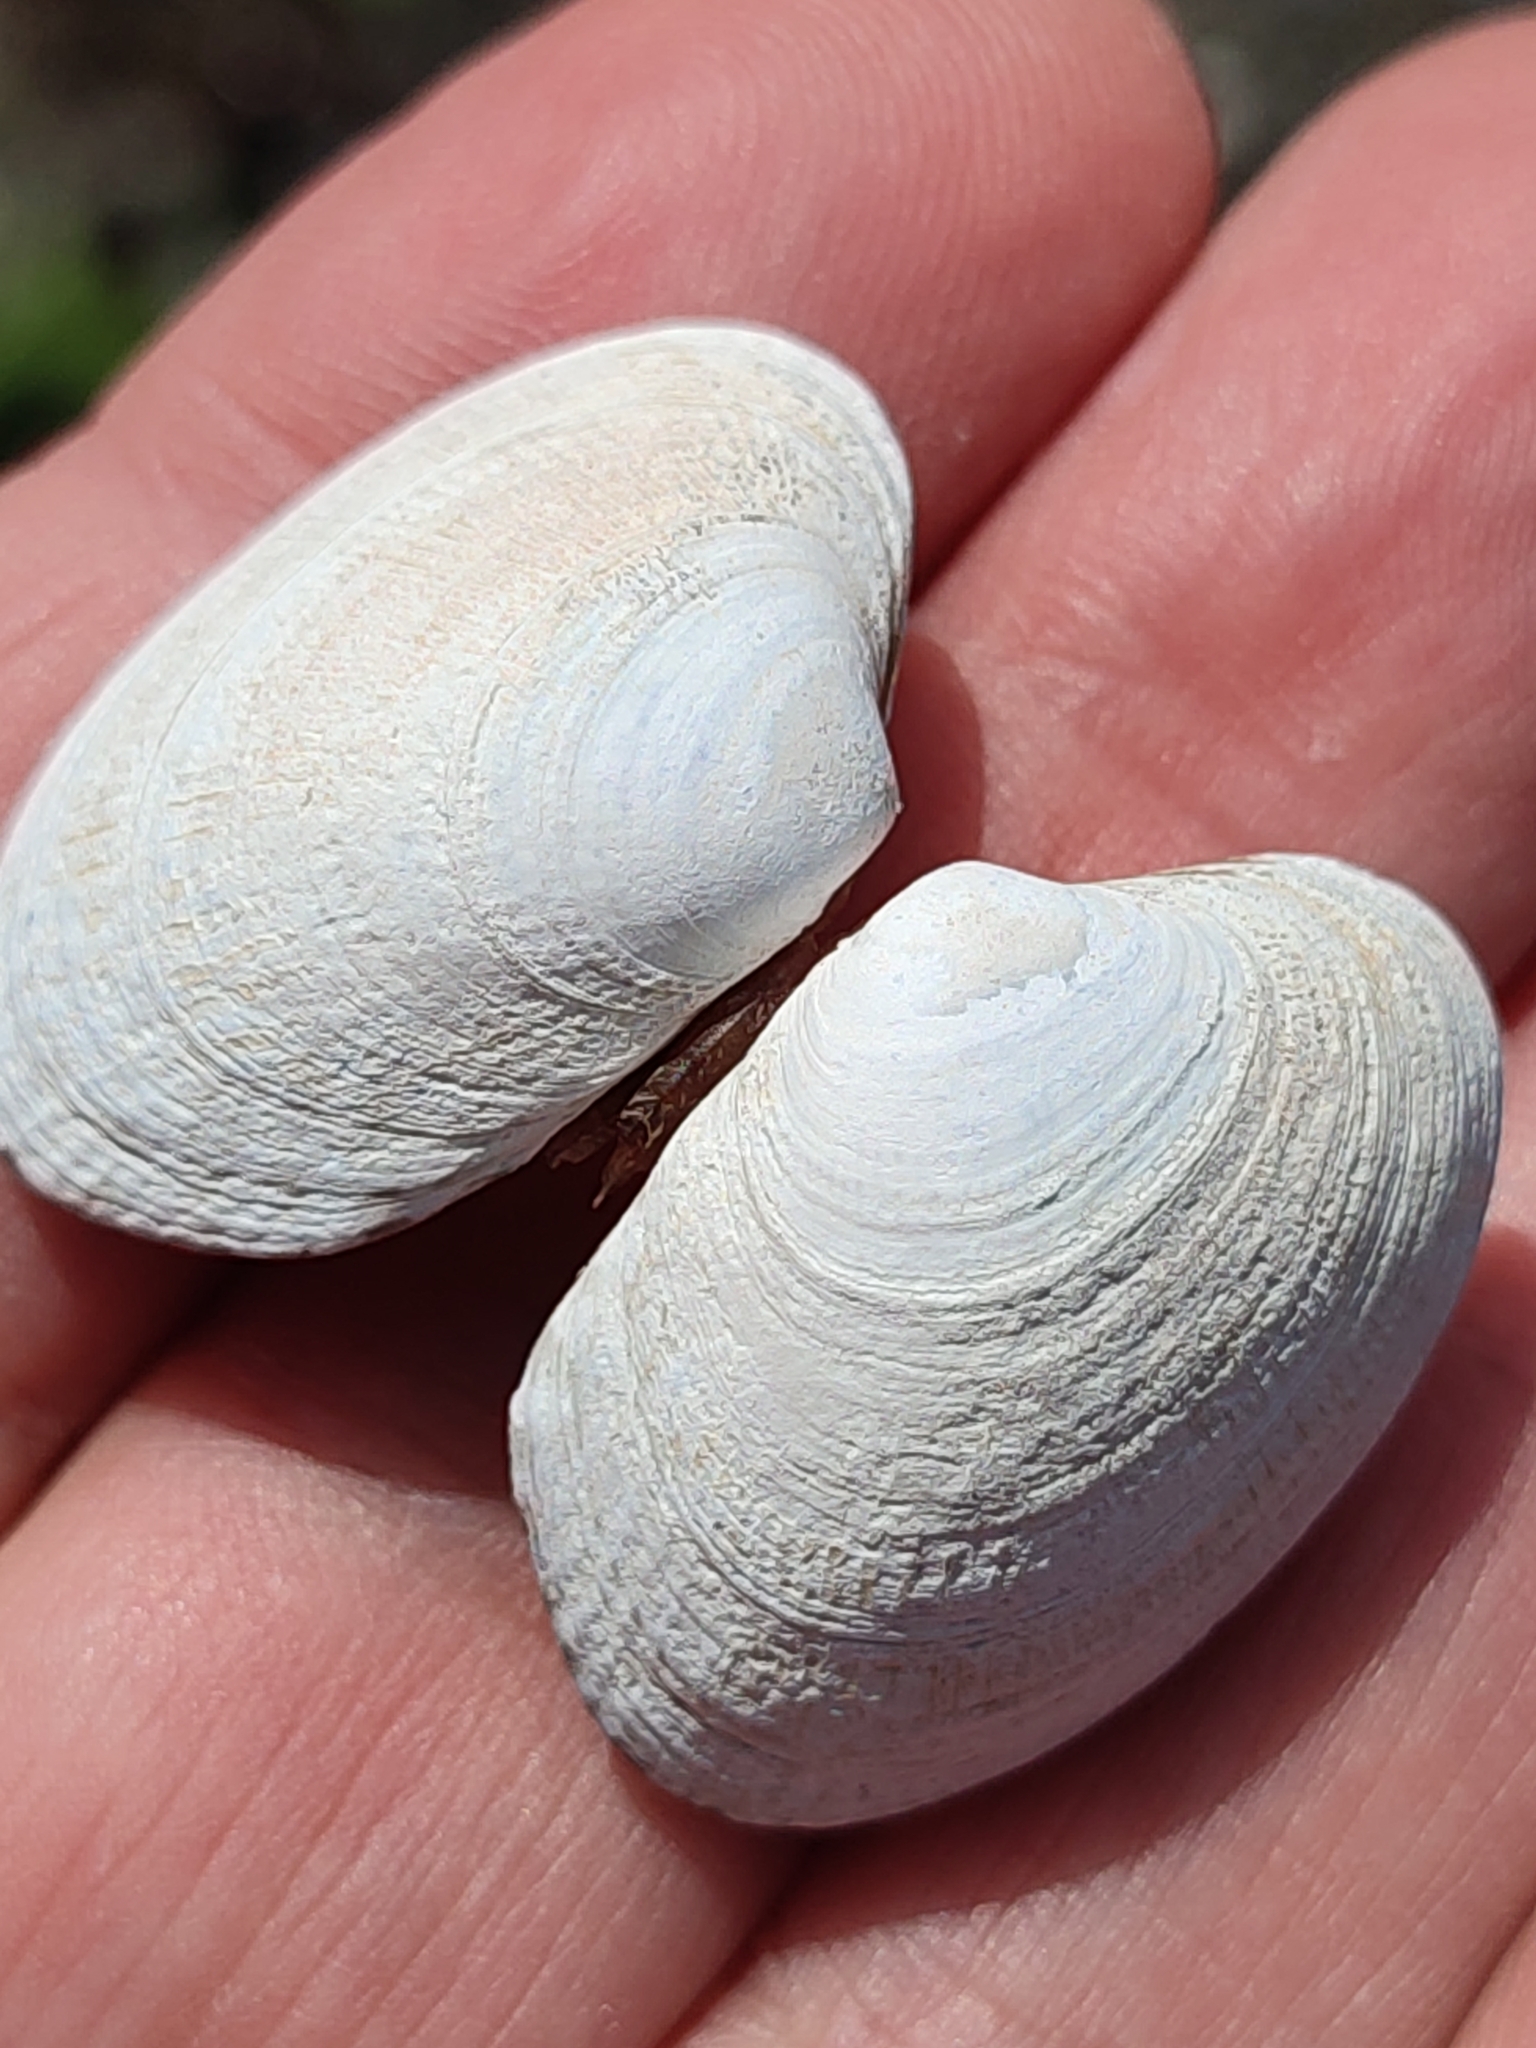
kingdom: Animalia
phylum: Mollusca
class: Bivalvia
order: Venerida
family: Veneridae
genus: Ruditapes
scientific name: Ruditapes philippinarum
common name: Manila clam
